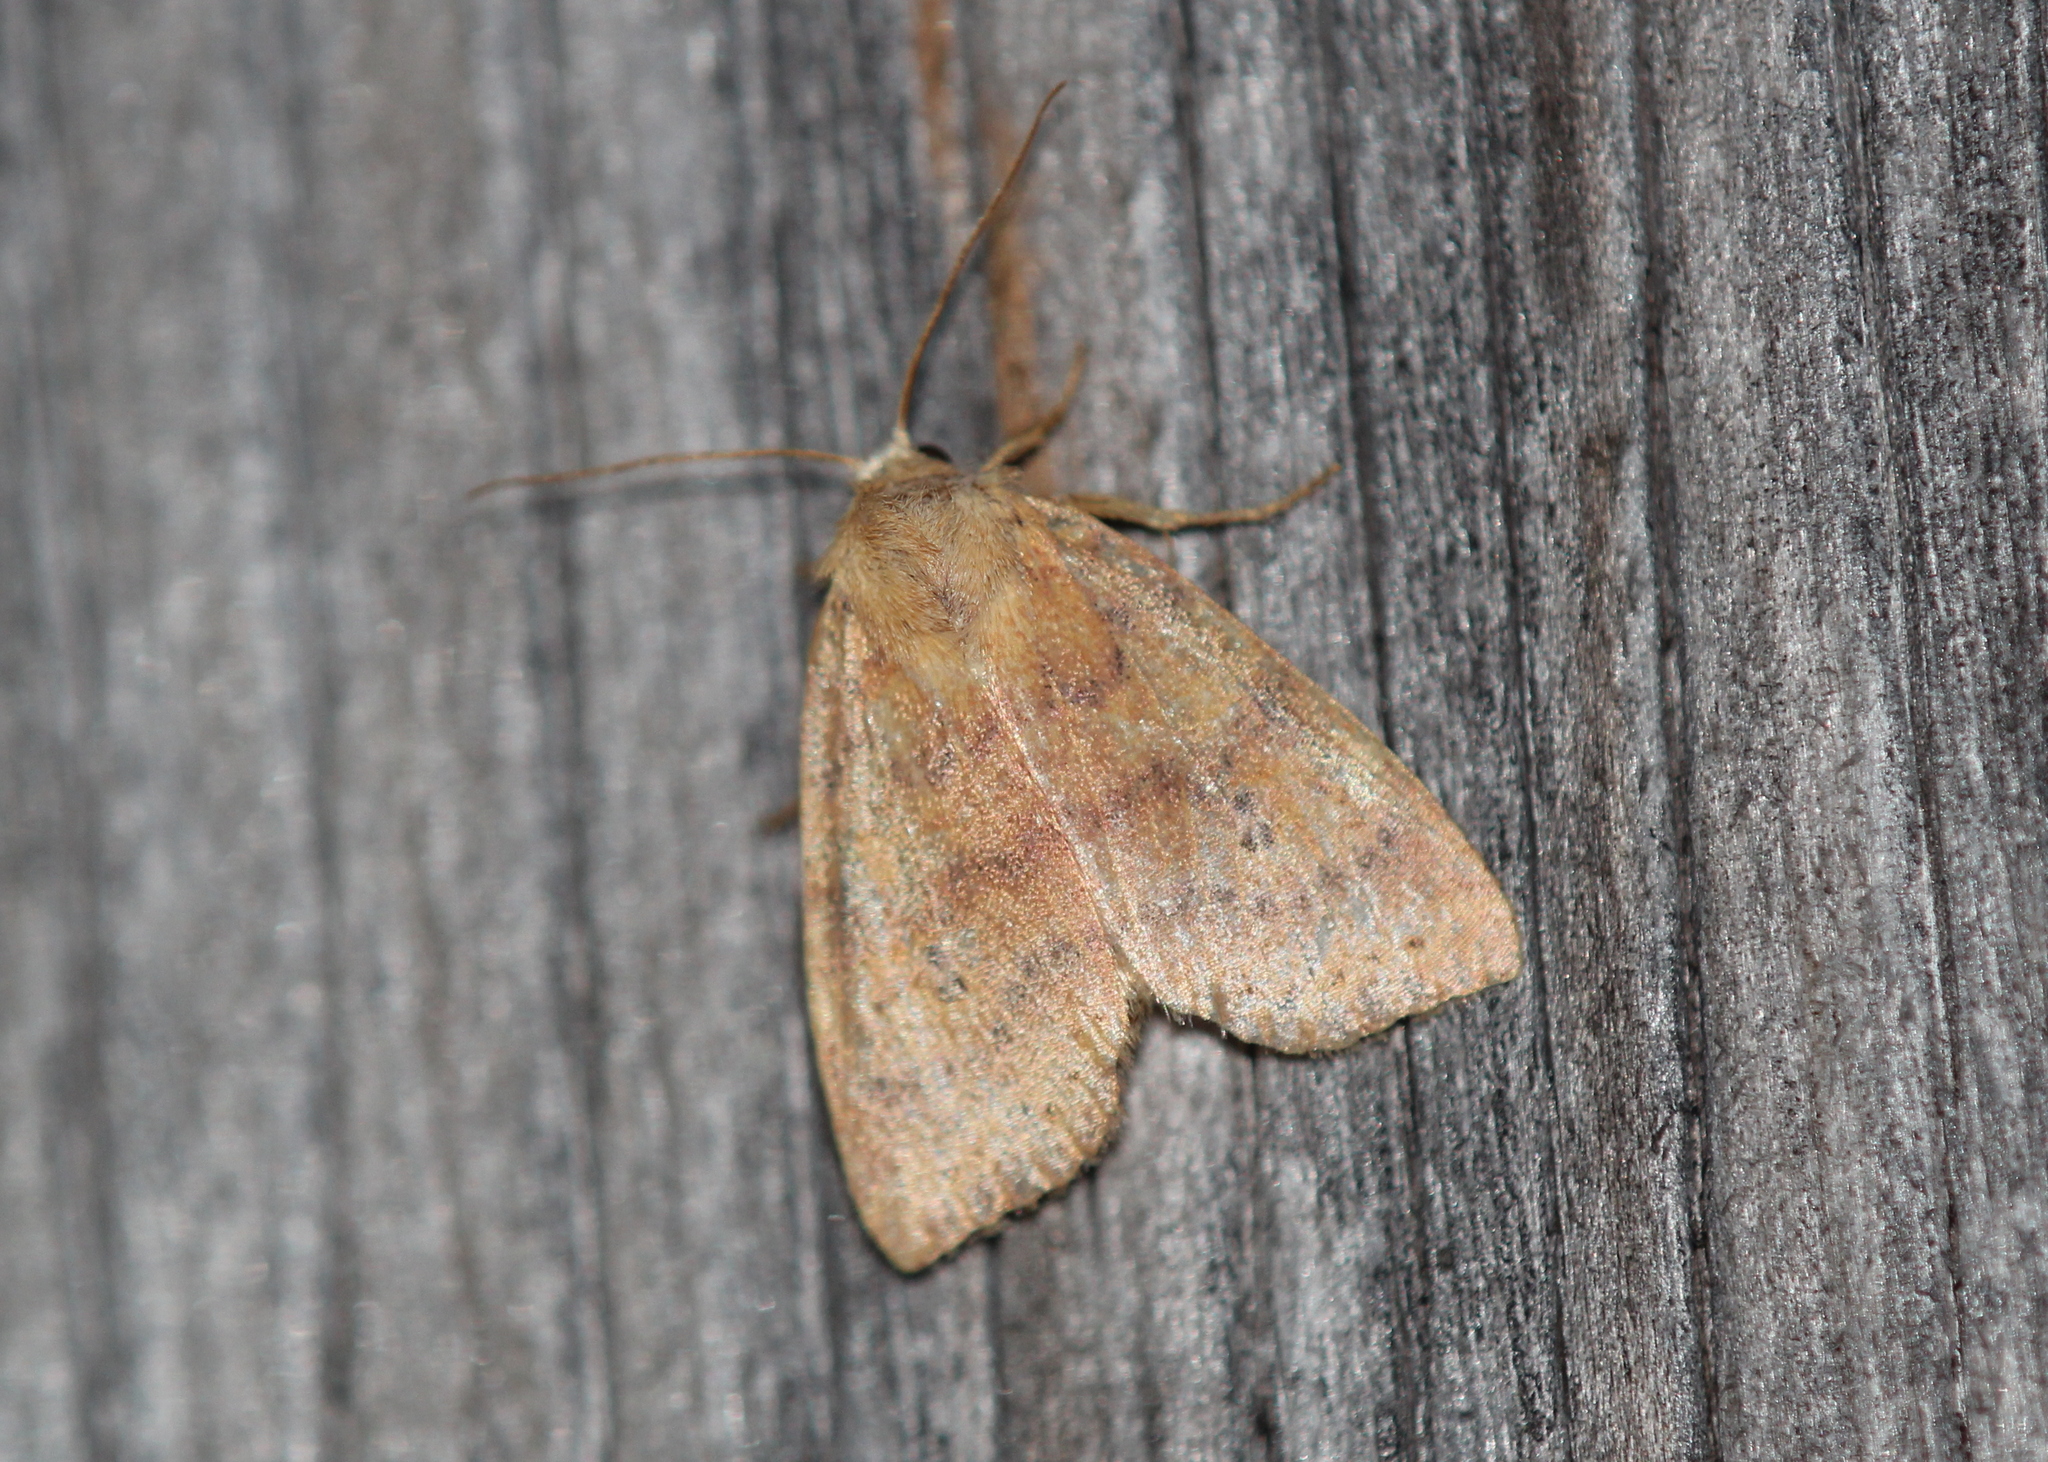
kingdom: Animalia
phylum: Arthropoda
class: Insecta
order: Lepidoptera
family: Noctuidae
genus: Anathix
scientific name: Anathix ralla
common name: Dotted sallow
